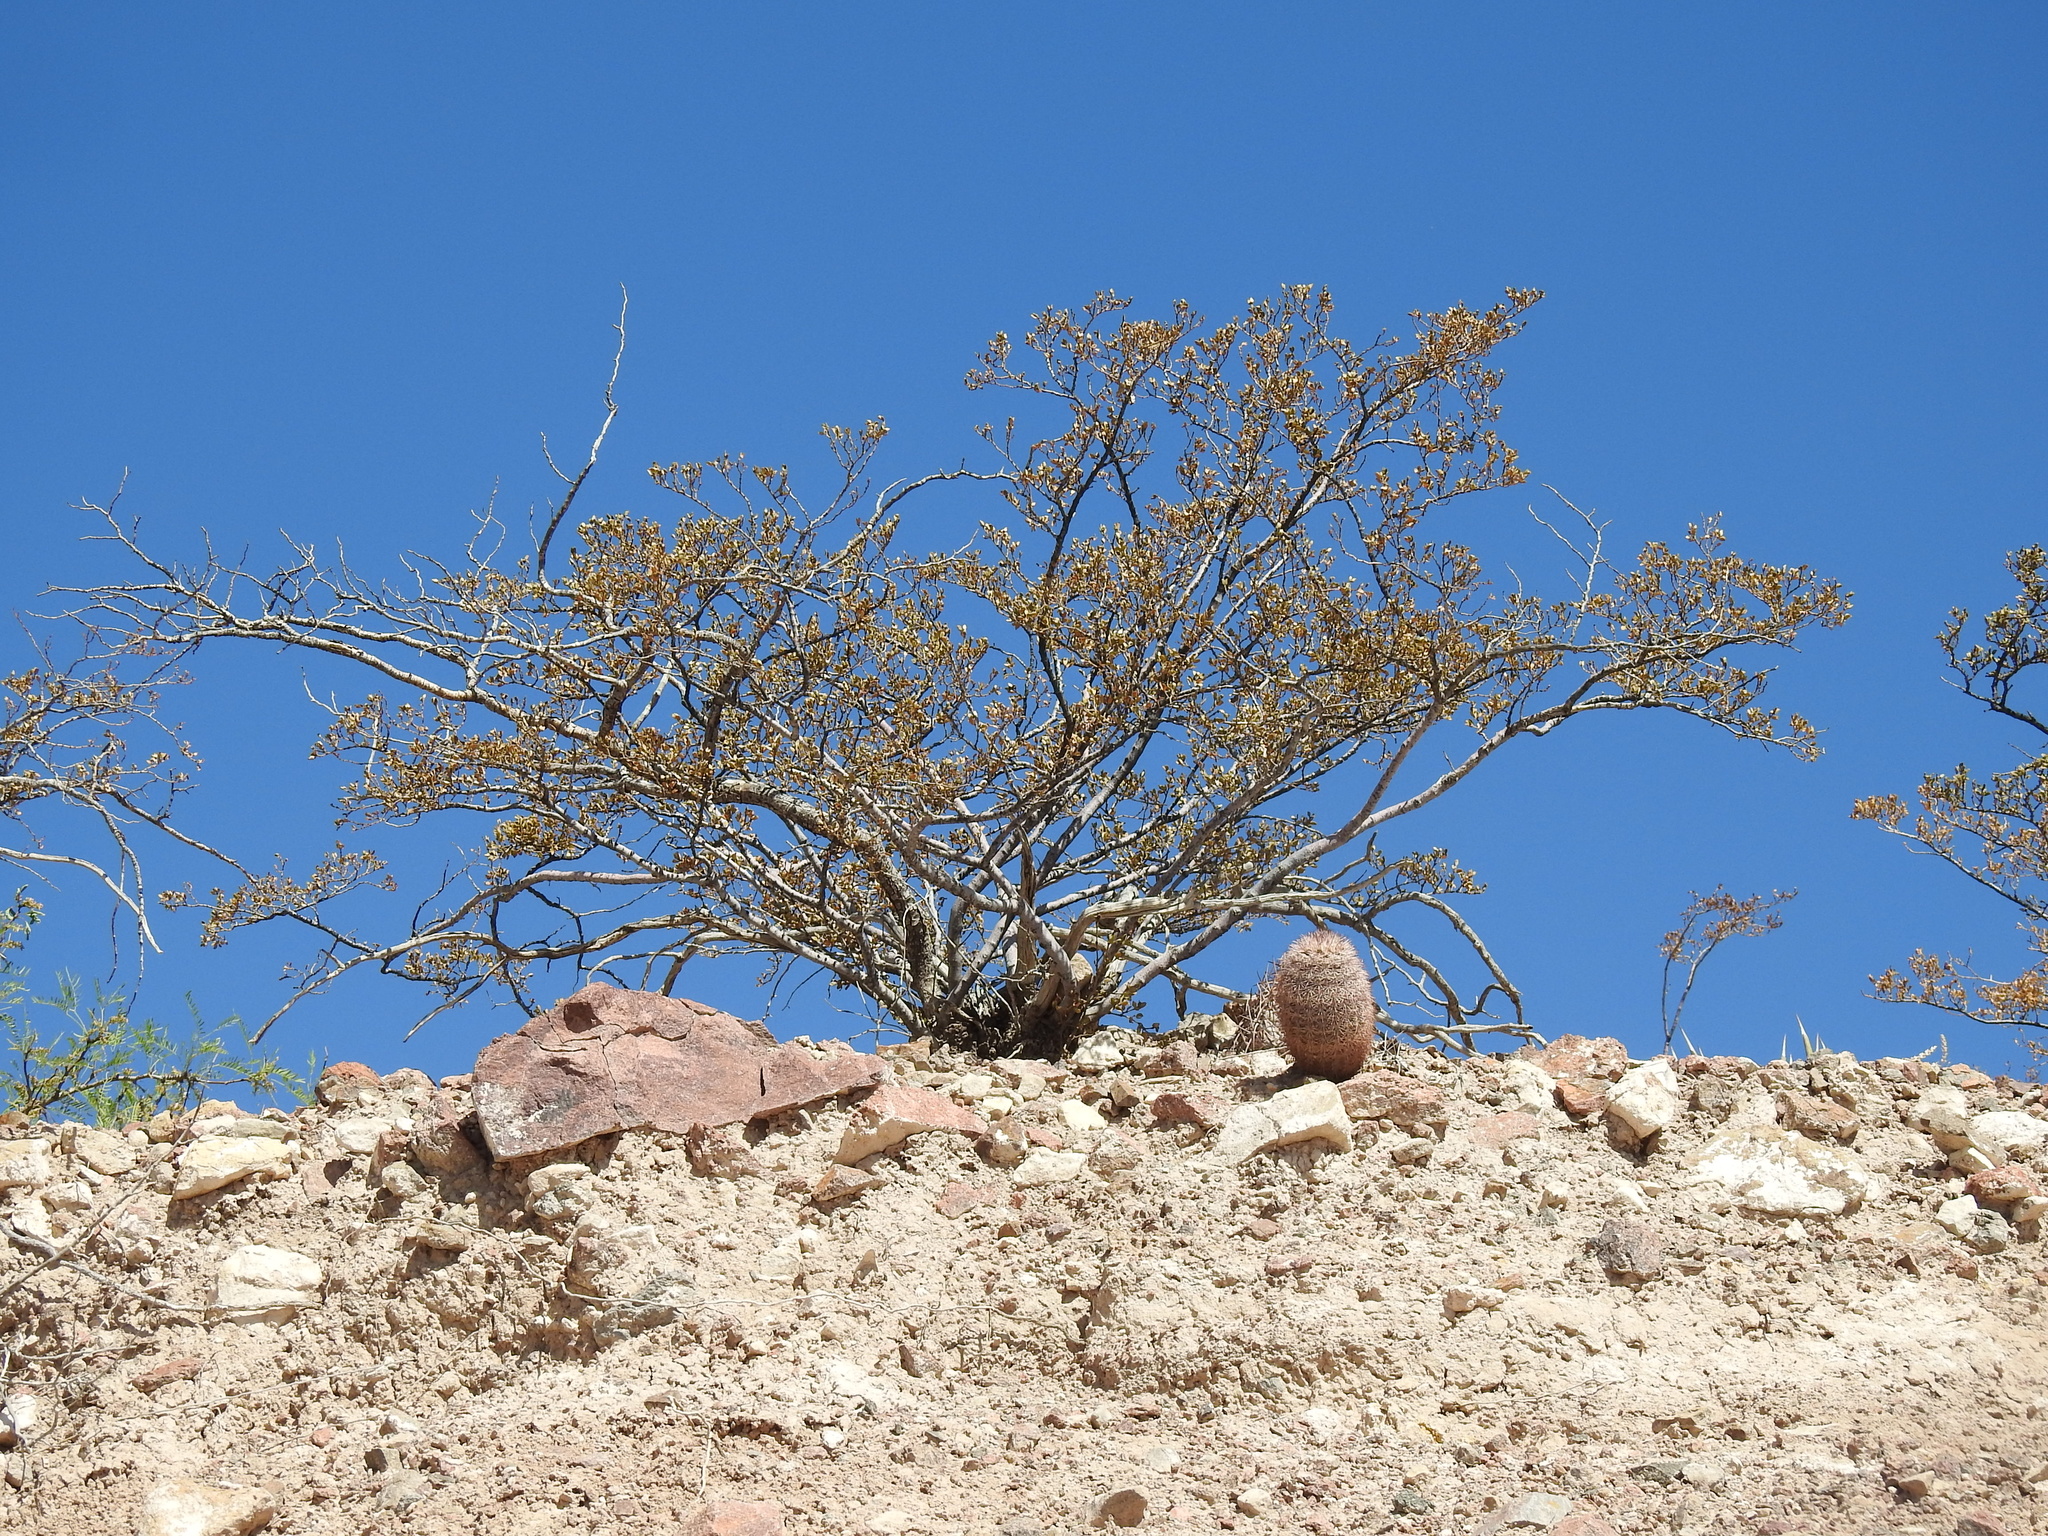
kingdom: Plantae
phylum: Tracheophyta
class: Magnoliopsida
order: Zygophyllales
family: Zygophyllaceae
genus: Larrea
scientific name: Larrea tridentata
